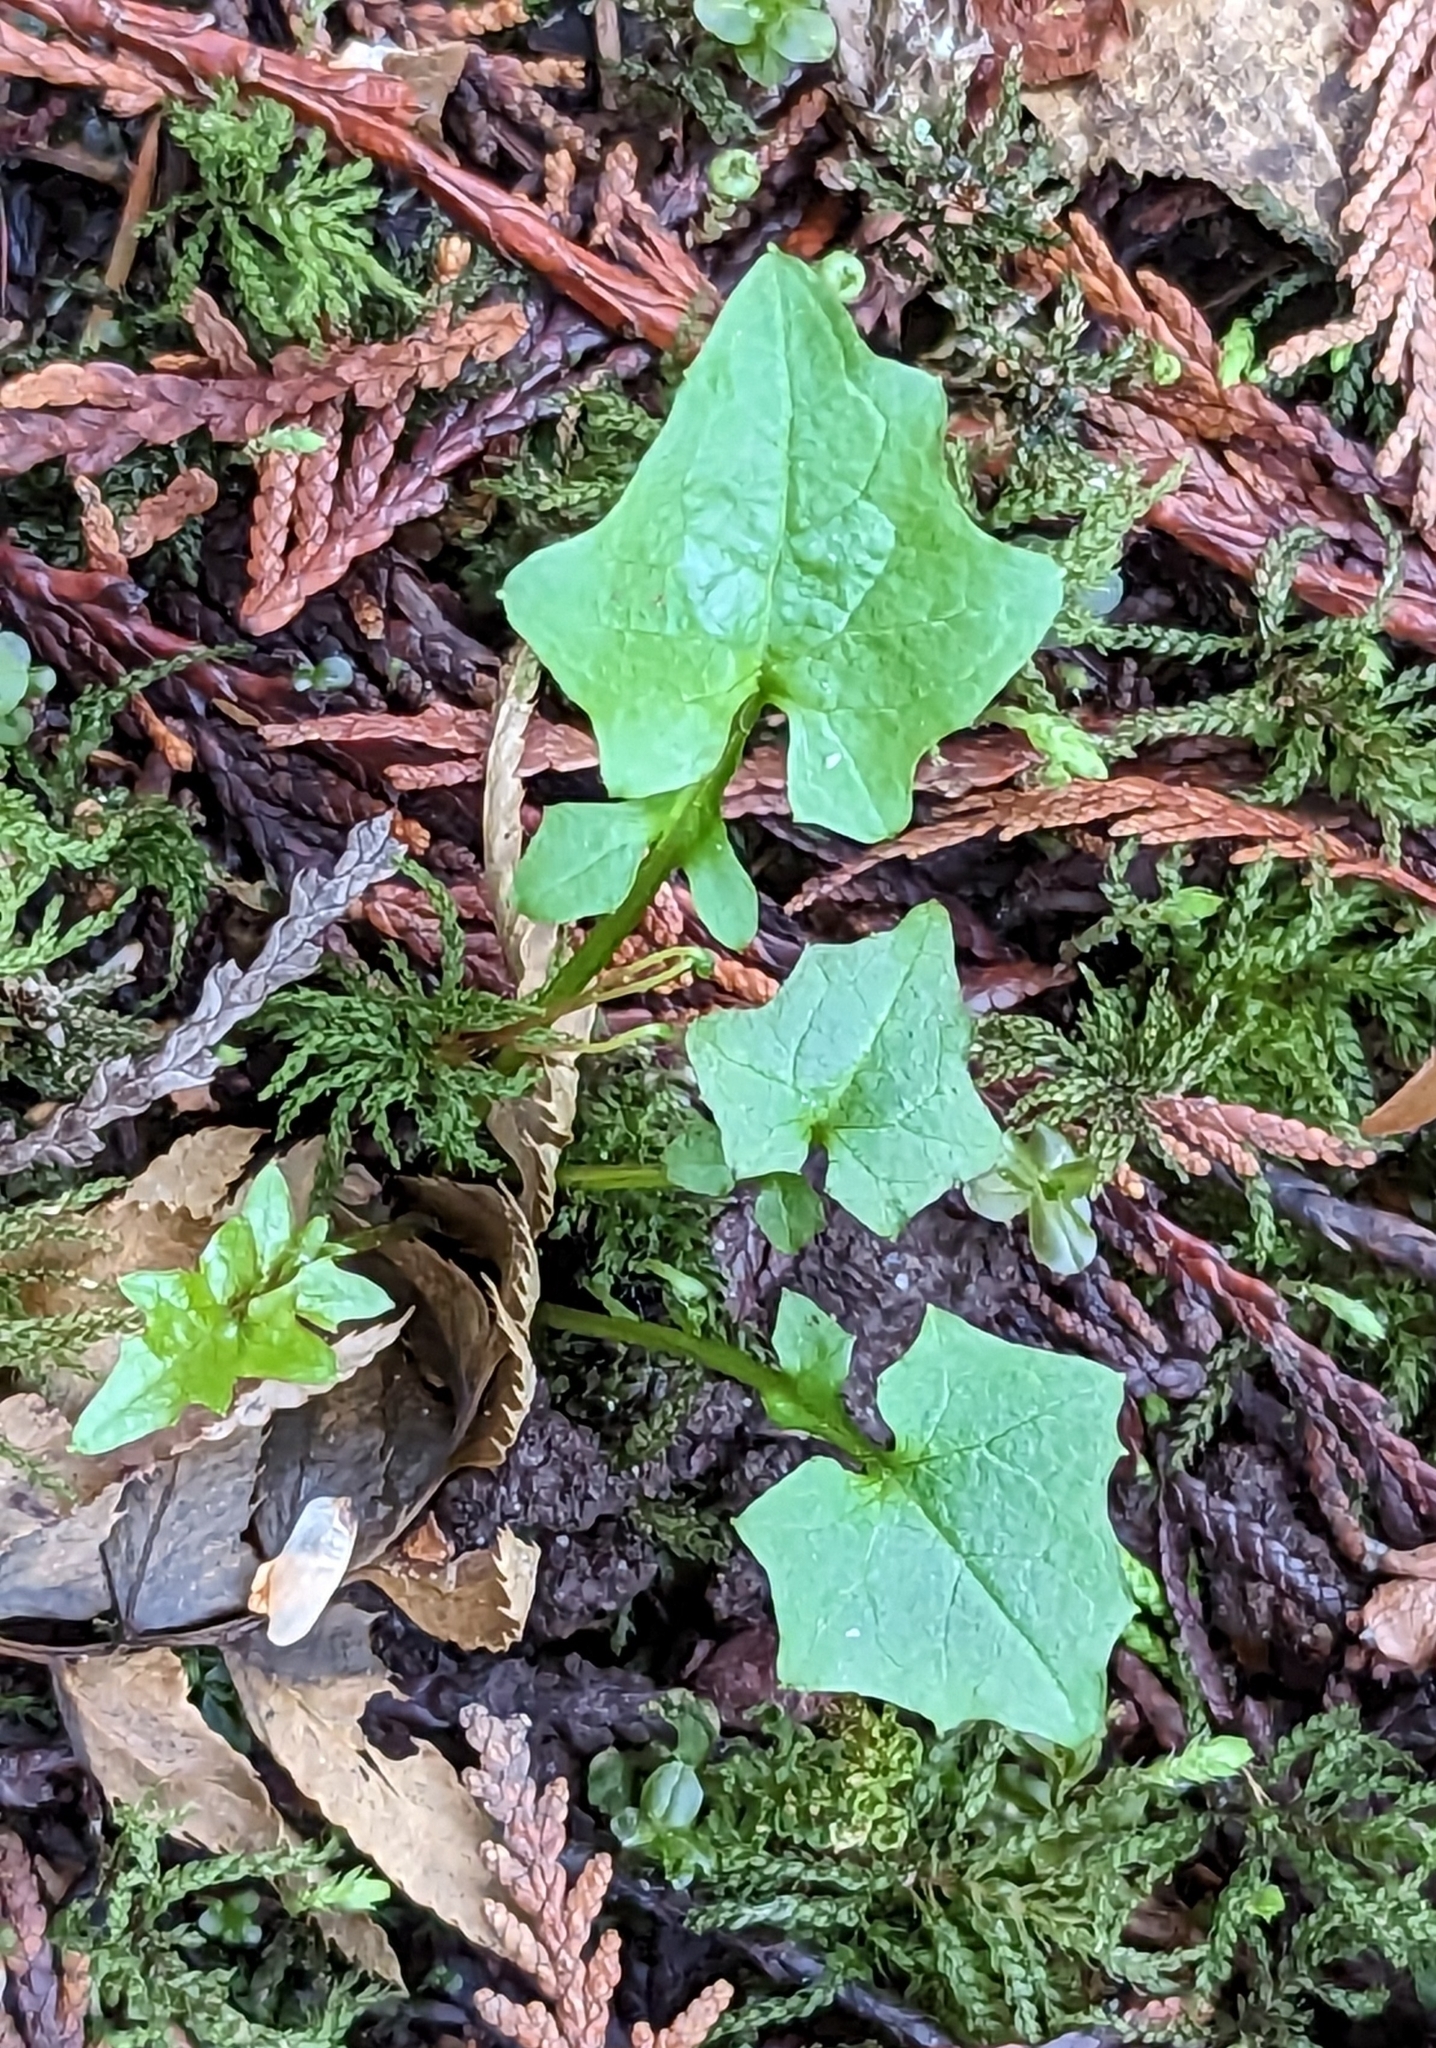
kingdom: Plantae
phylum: Tracheophyta
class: Magnoliopsida
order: Asterales
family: Asteraceae
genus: Mycelis
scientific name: Mycelis muralis
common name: Wall lettuce
